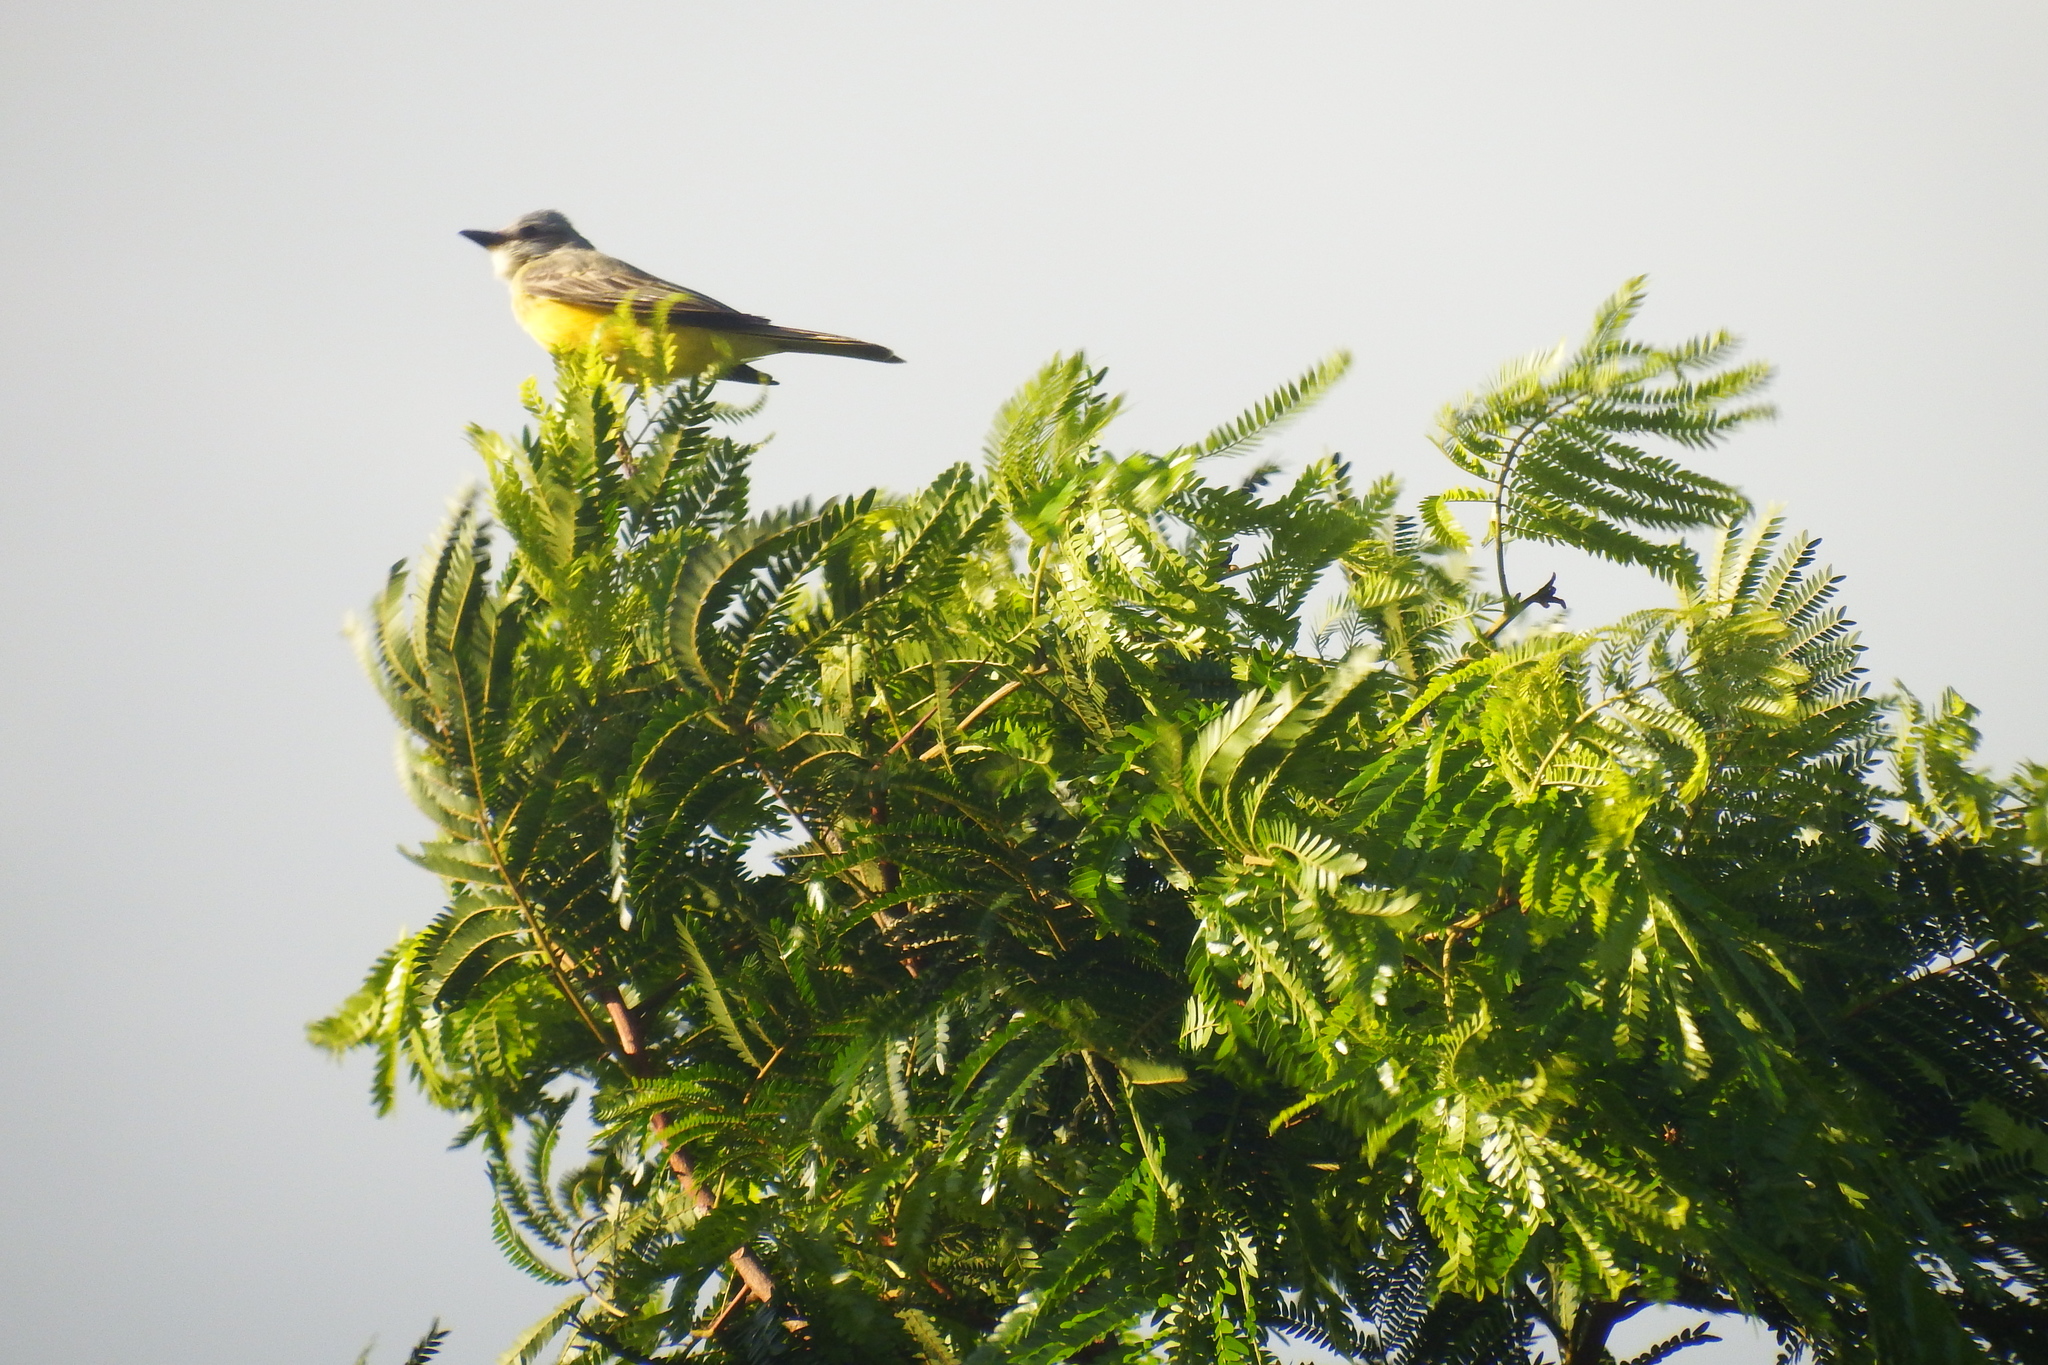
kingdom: Animalia
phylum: Chordata
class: Aves
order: Passeriformes
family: Tyrannidae
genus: Tyrannus
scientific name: Tyrannus melancholicus
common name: Tropical kingbird
